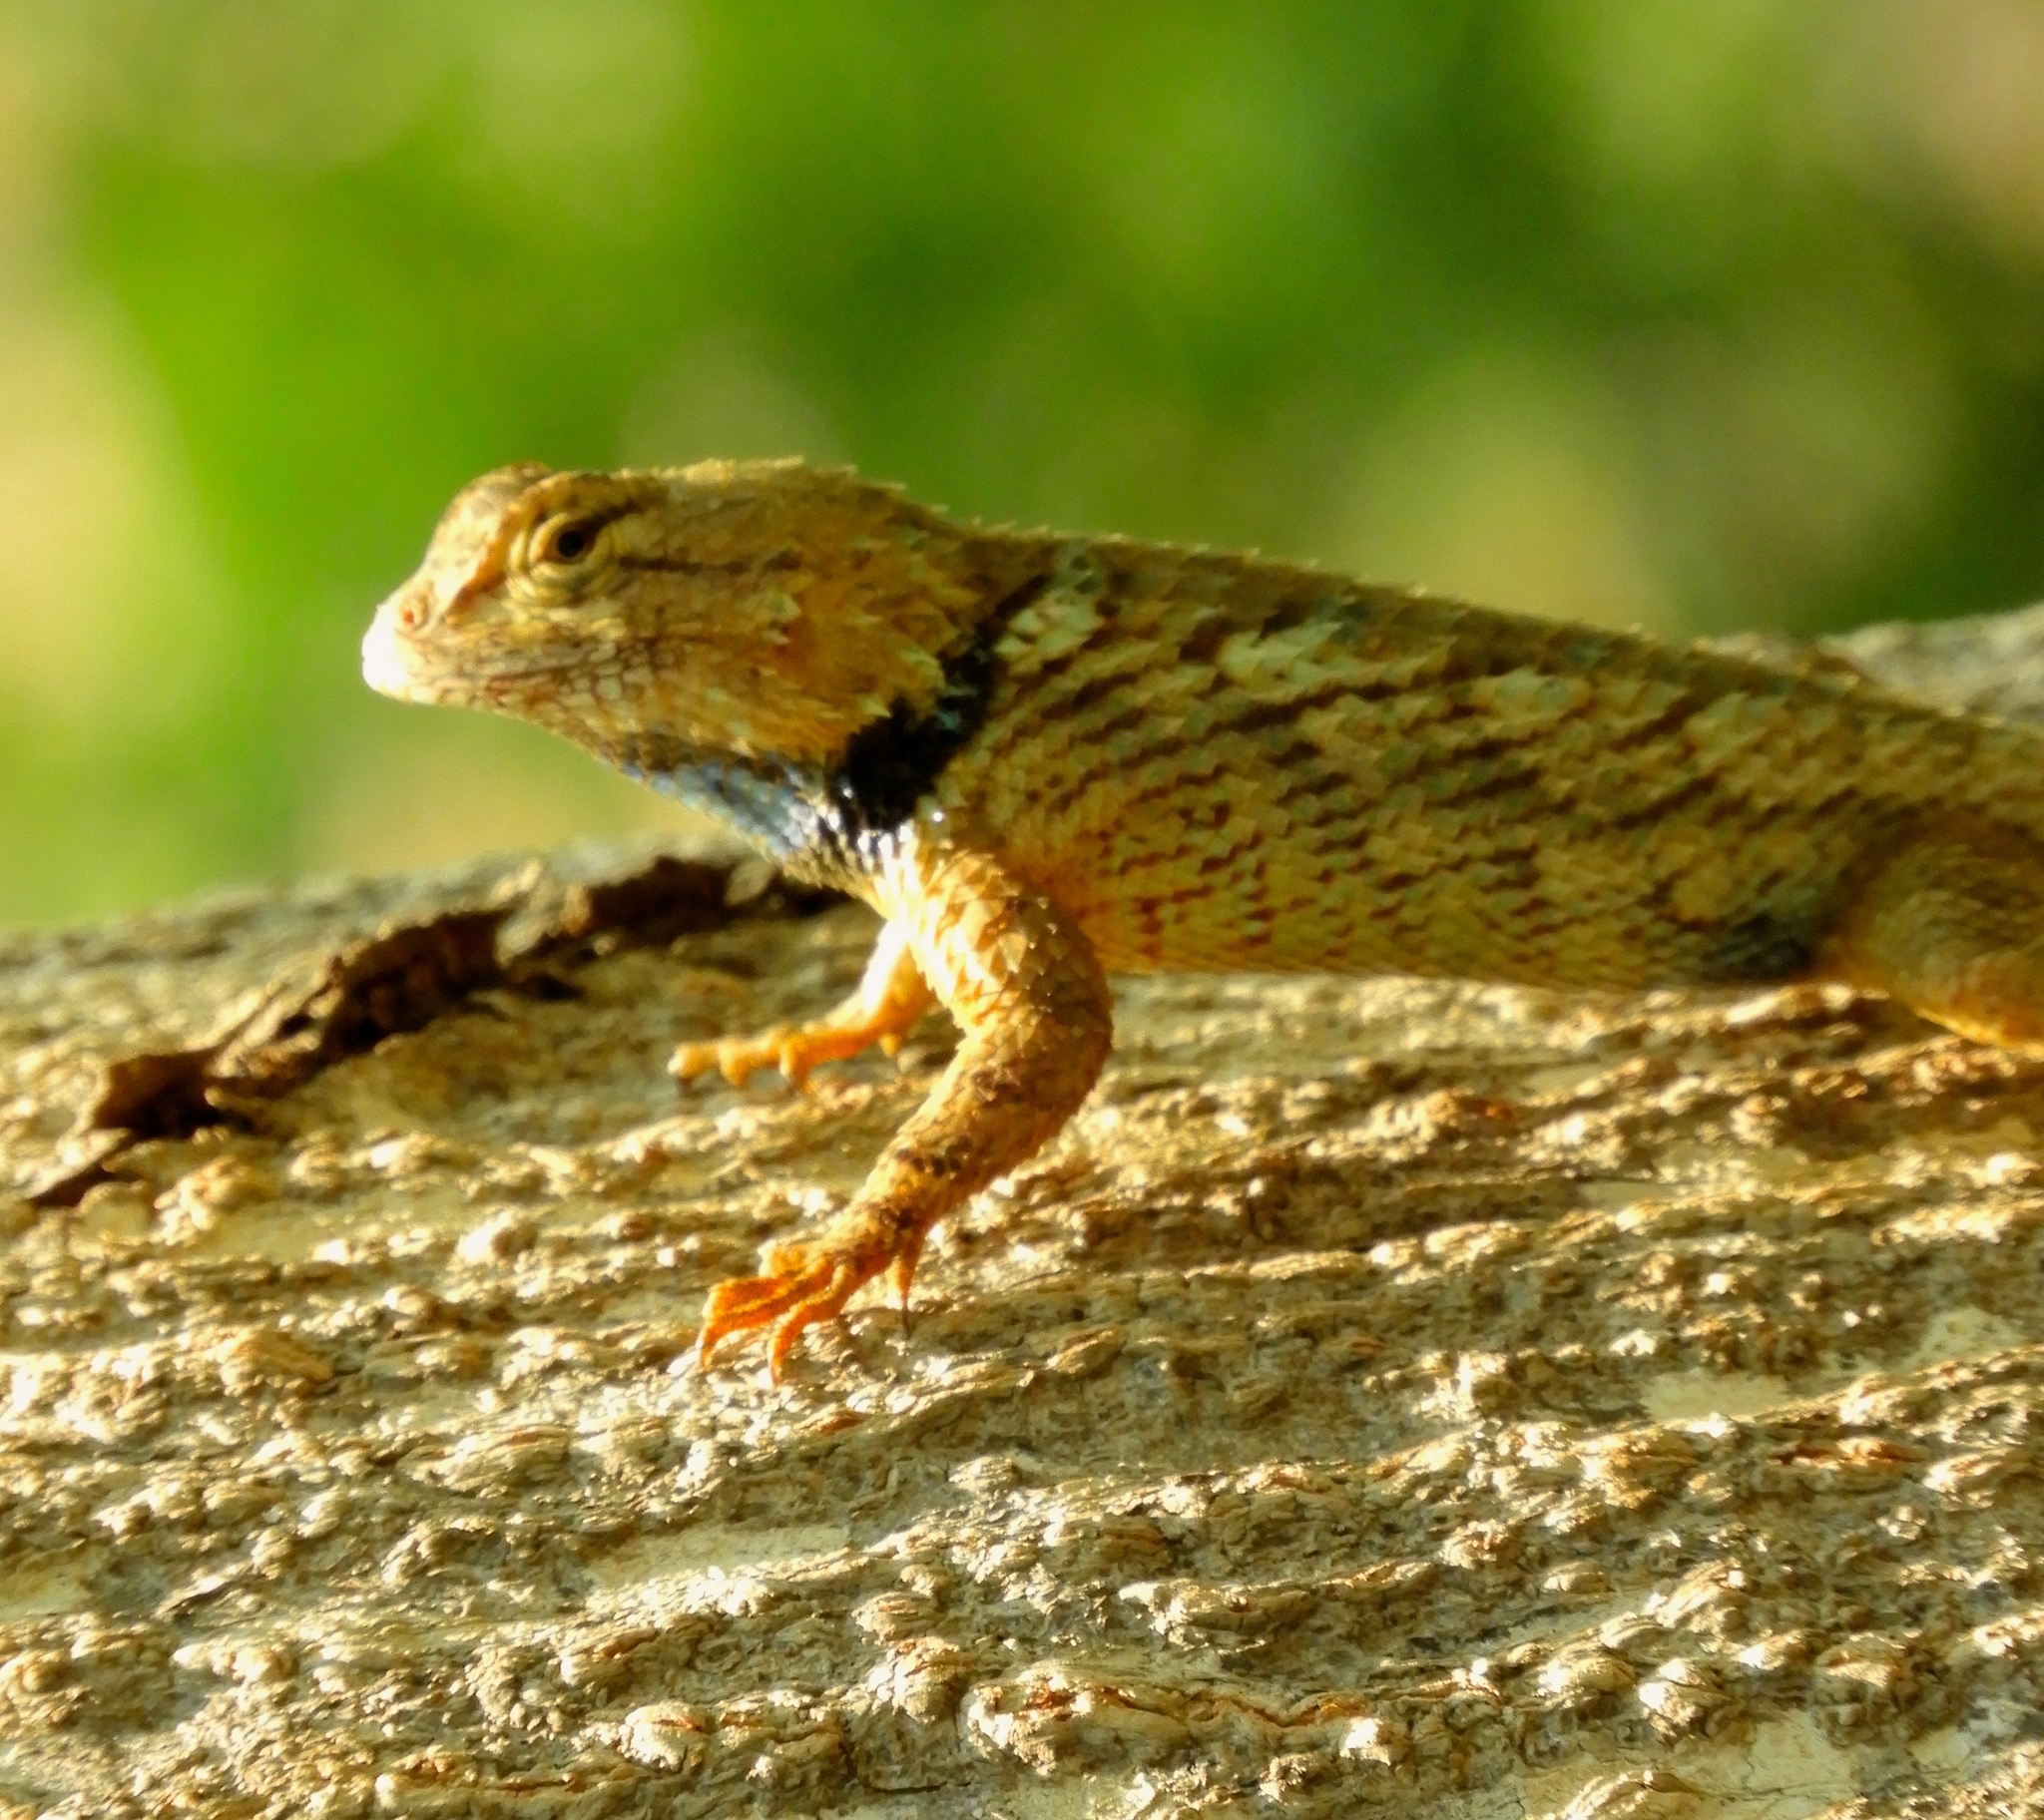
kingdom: Animalia
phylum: Chordata
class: Squamata
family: Phrynosomatidae
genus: Sceloporus
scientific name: Sceloporus clarkii
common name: Clark's spiny lizard
